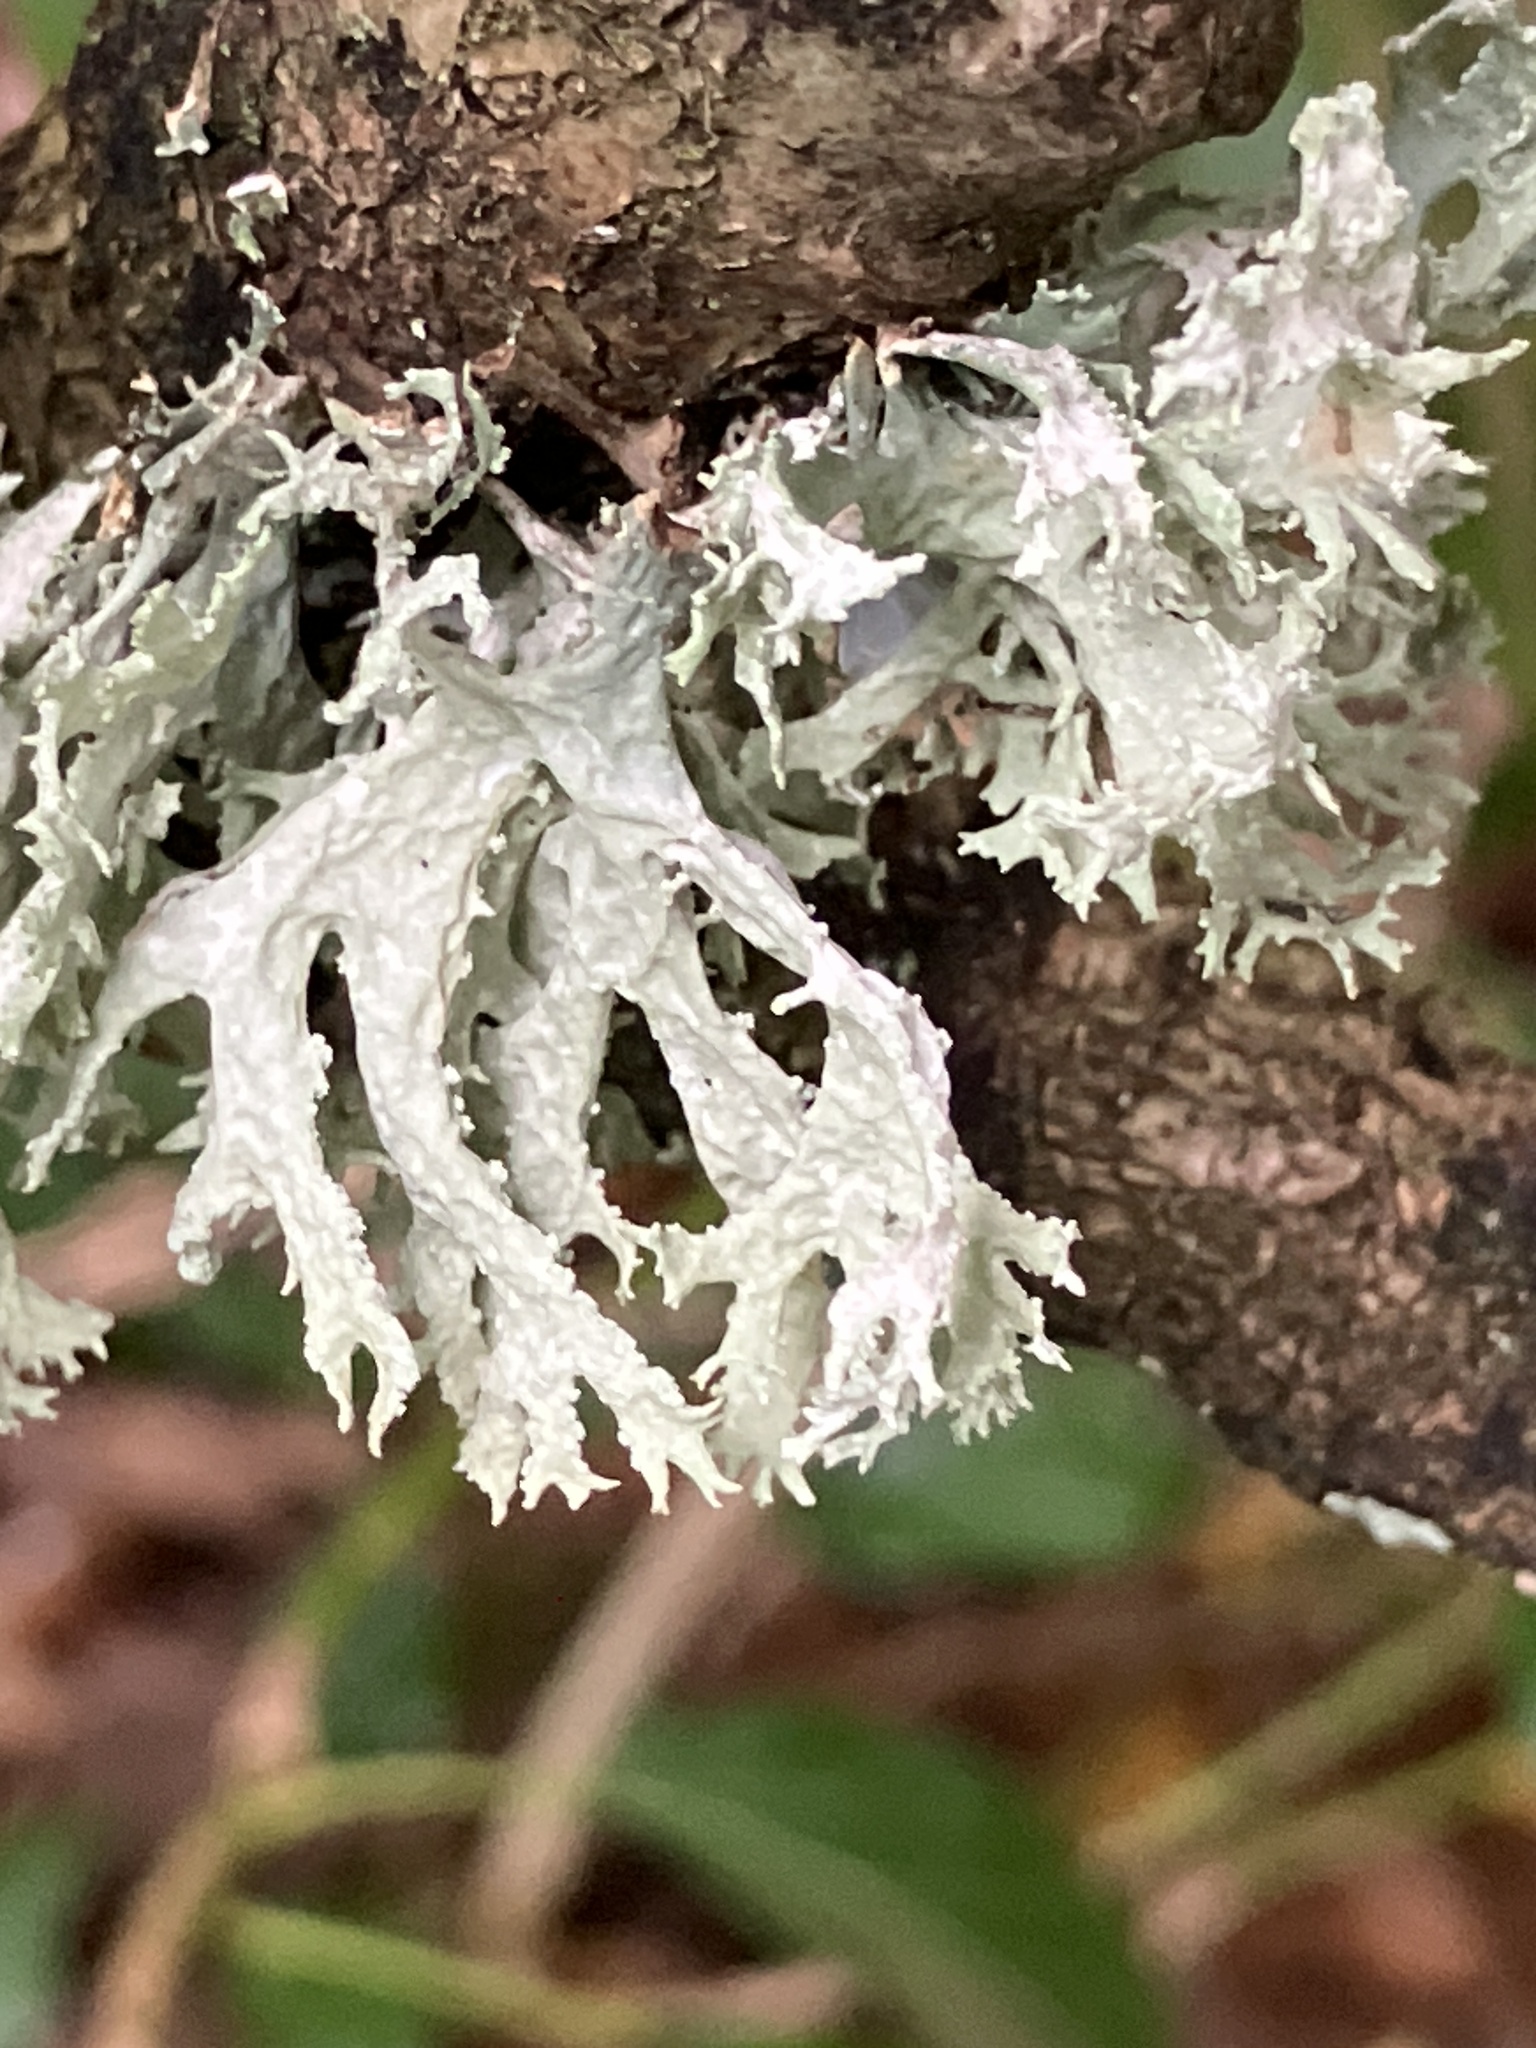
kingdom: Fungi
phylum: Ascomycota
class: Lecanoromycetes
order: Lecanorales
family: Parmeliaceae
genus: Evernia
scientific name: Evernia prunastri
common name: Oak moss
